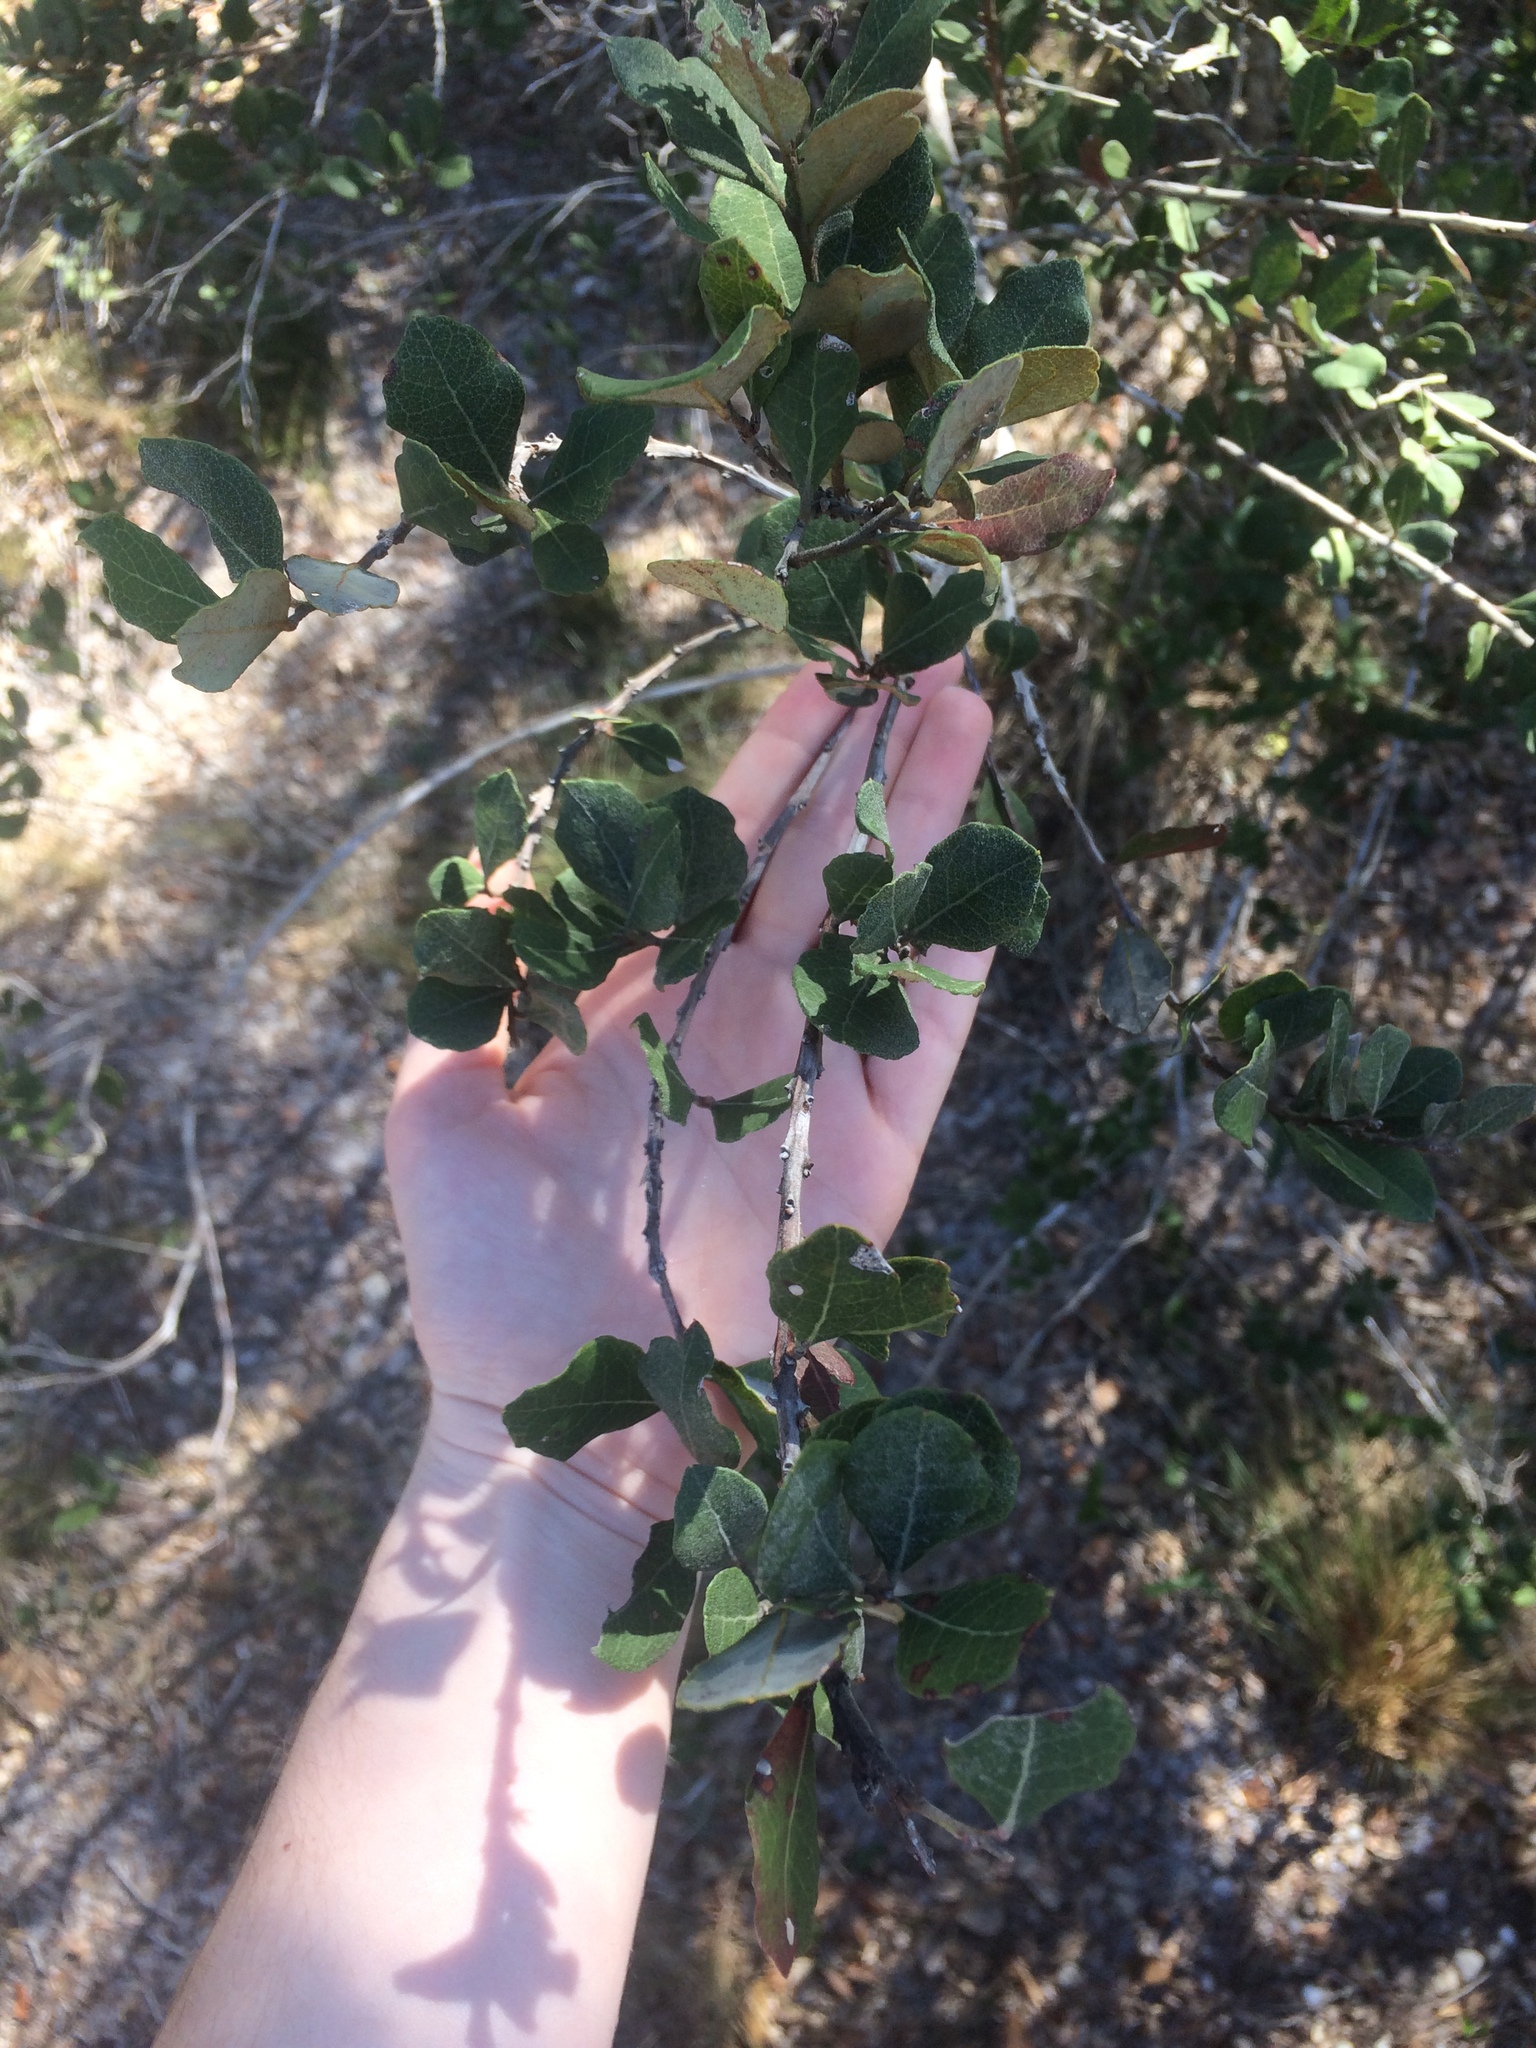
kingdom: Plantae
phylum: Tracheophyta
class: Magnoliopsida
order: Ericales
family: Ericaceae
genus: Lyonia
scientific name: Lyonia fruticosa
